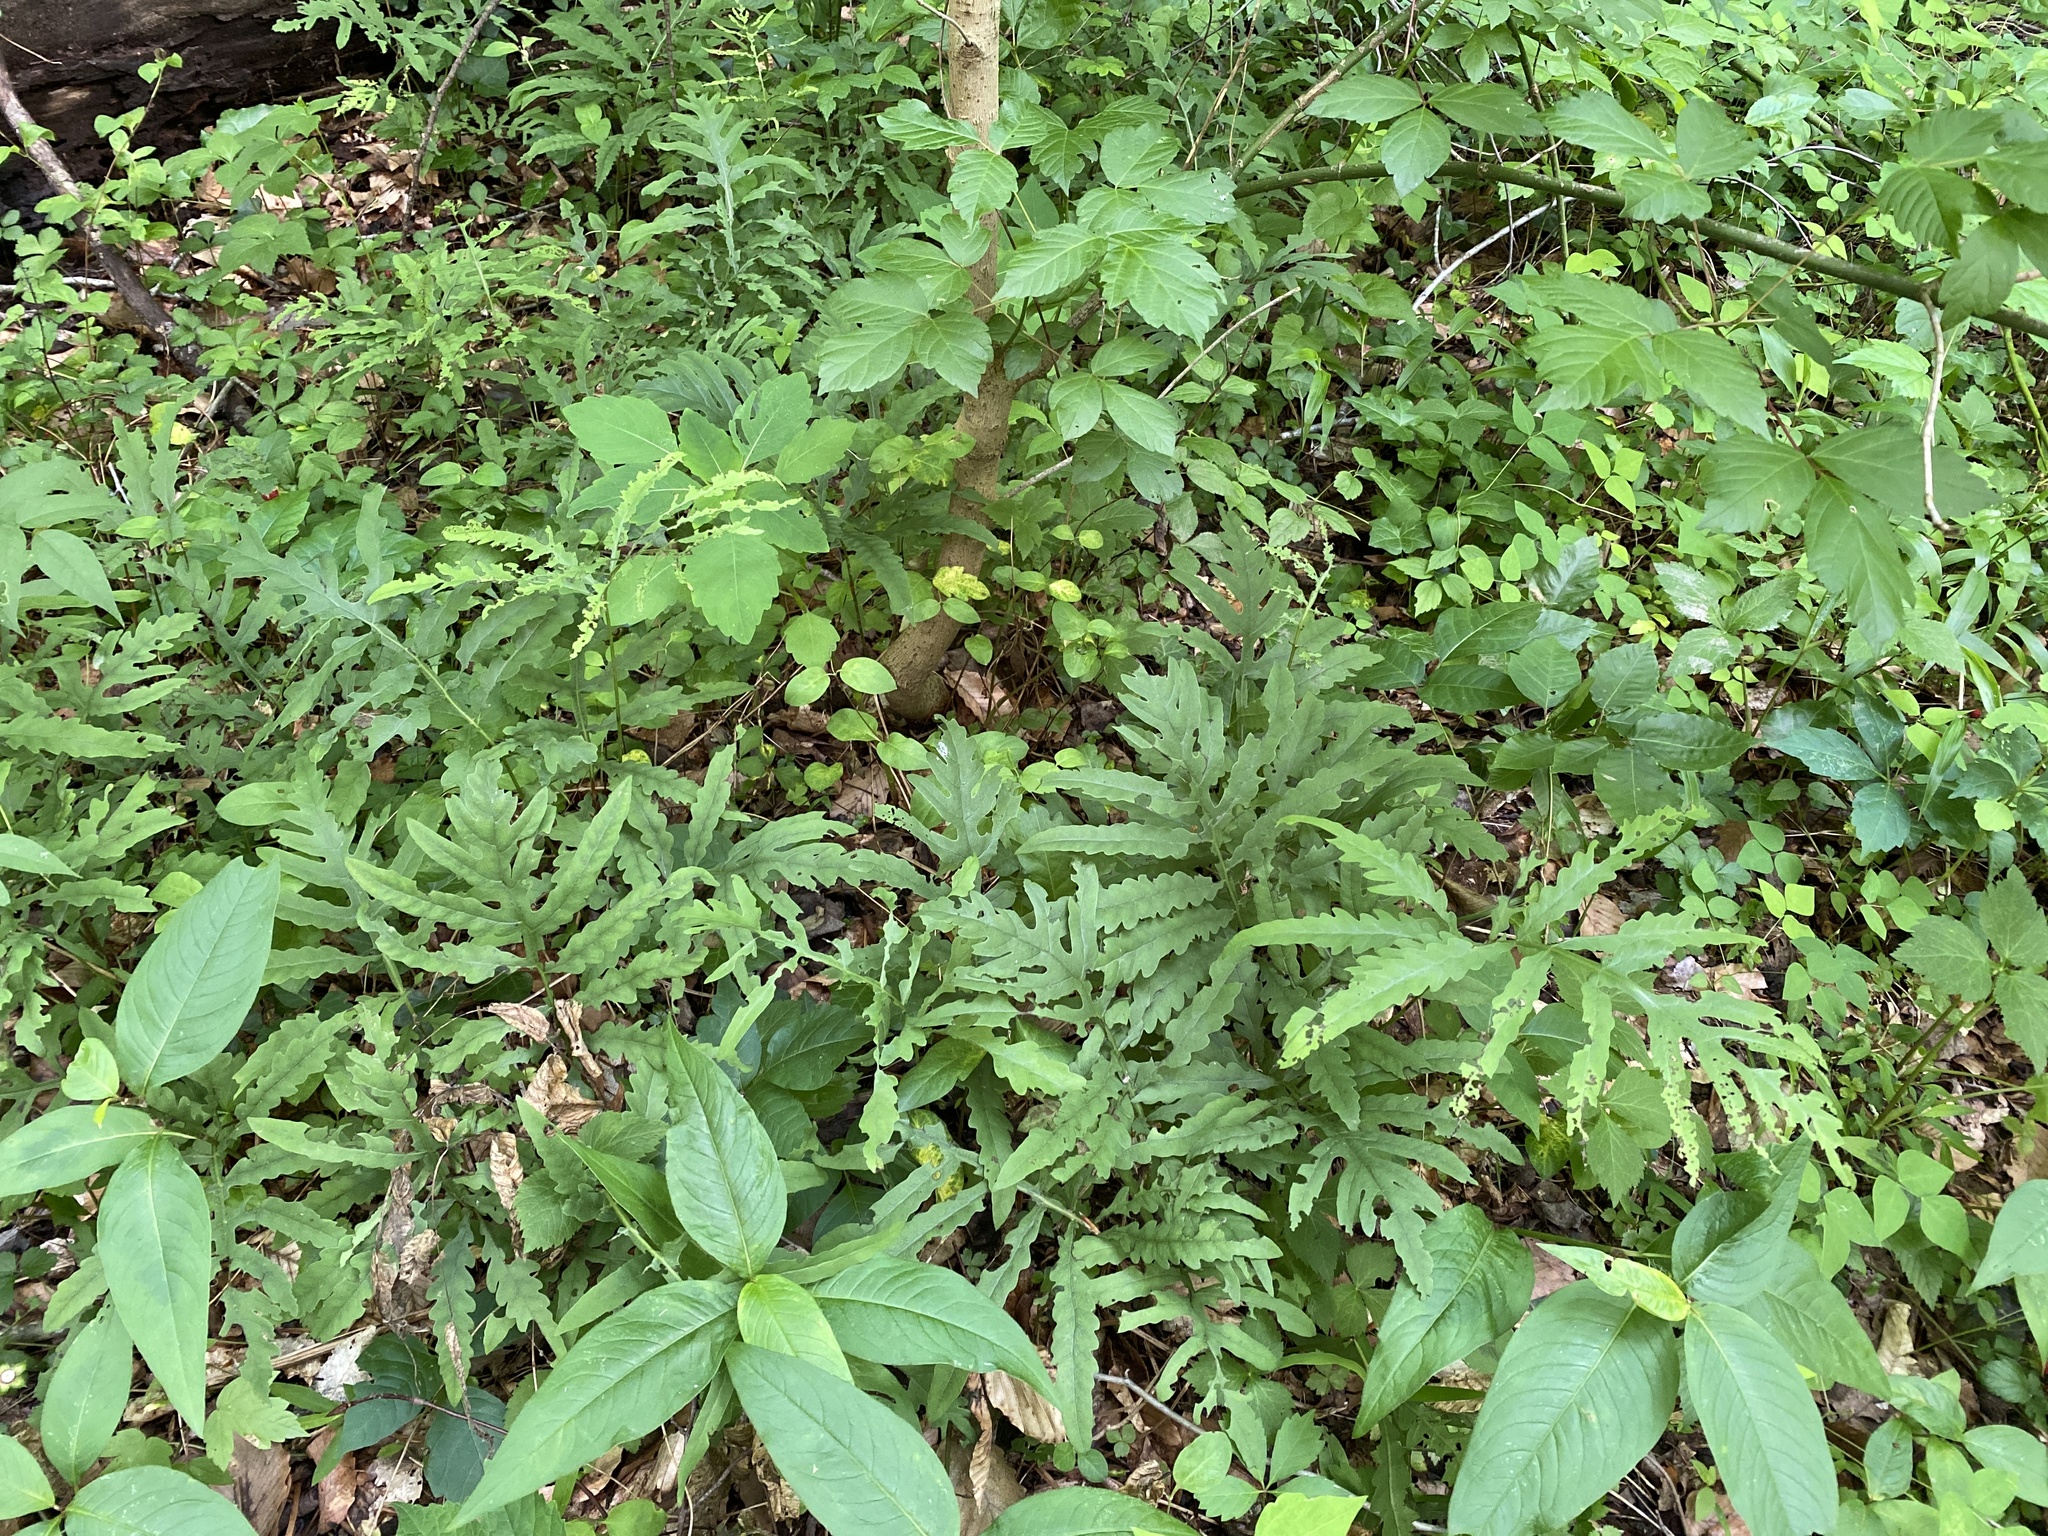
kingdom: Plantae
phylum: Tracheophyta
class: Polypodiopsida
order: Polypodiales
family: Onocleaceae
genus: Onoclea
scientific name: Onoclea sensibilis
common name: Sensitive fern
